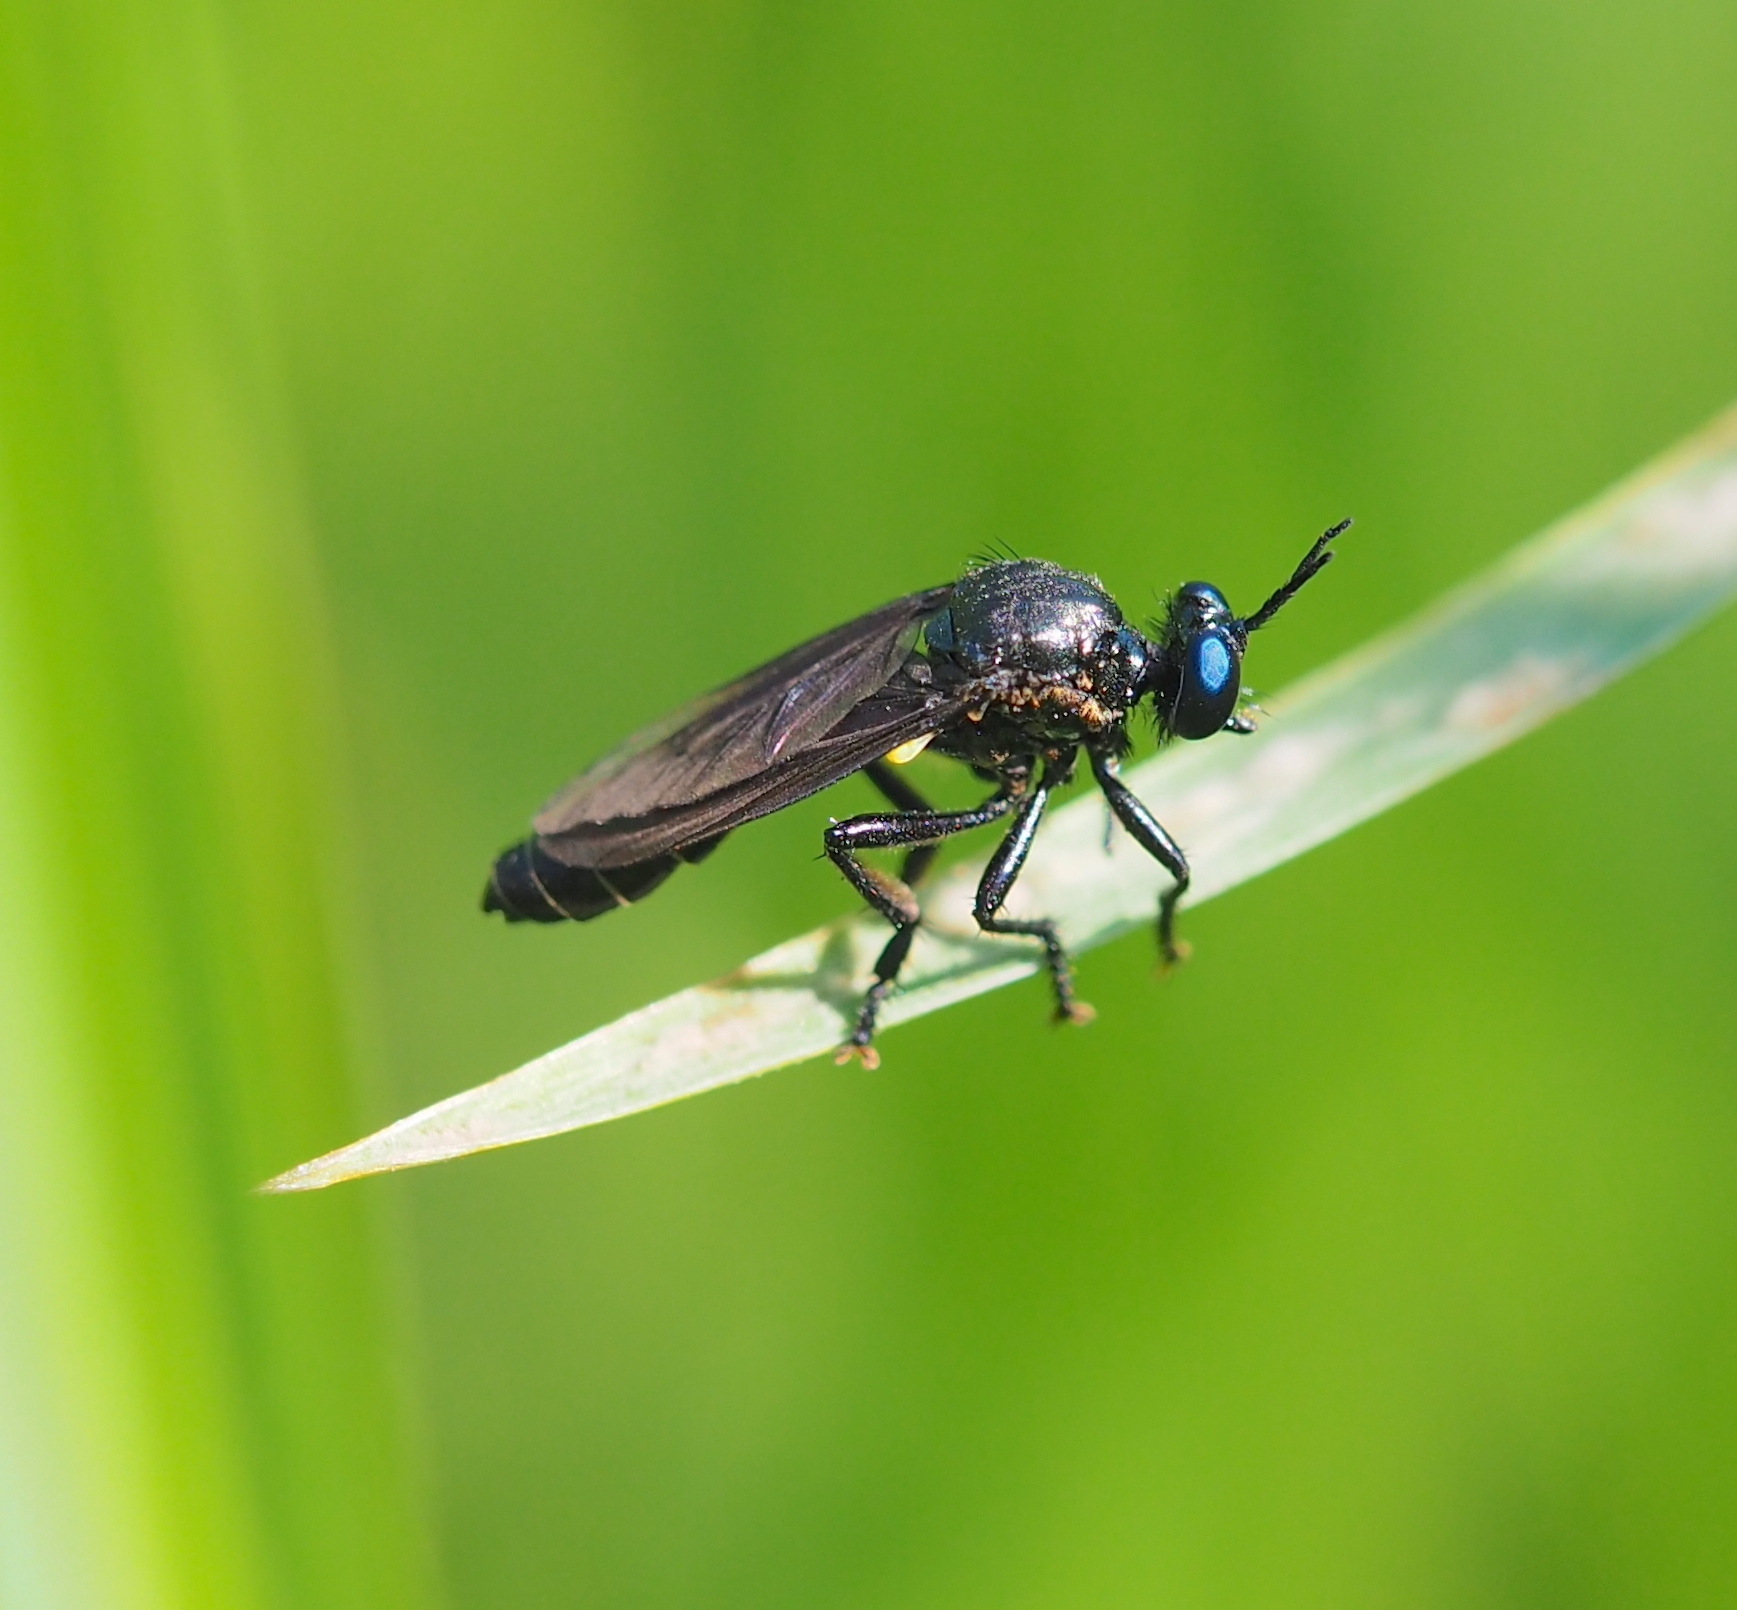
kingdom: Animalia
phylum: Arthropoda
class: Insecta
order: Diptera
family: Asilidae
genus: Dioctria
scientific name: Dioctria atricapilla
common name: Violet black-legged
